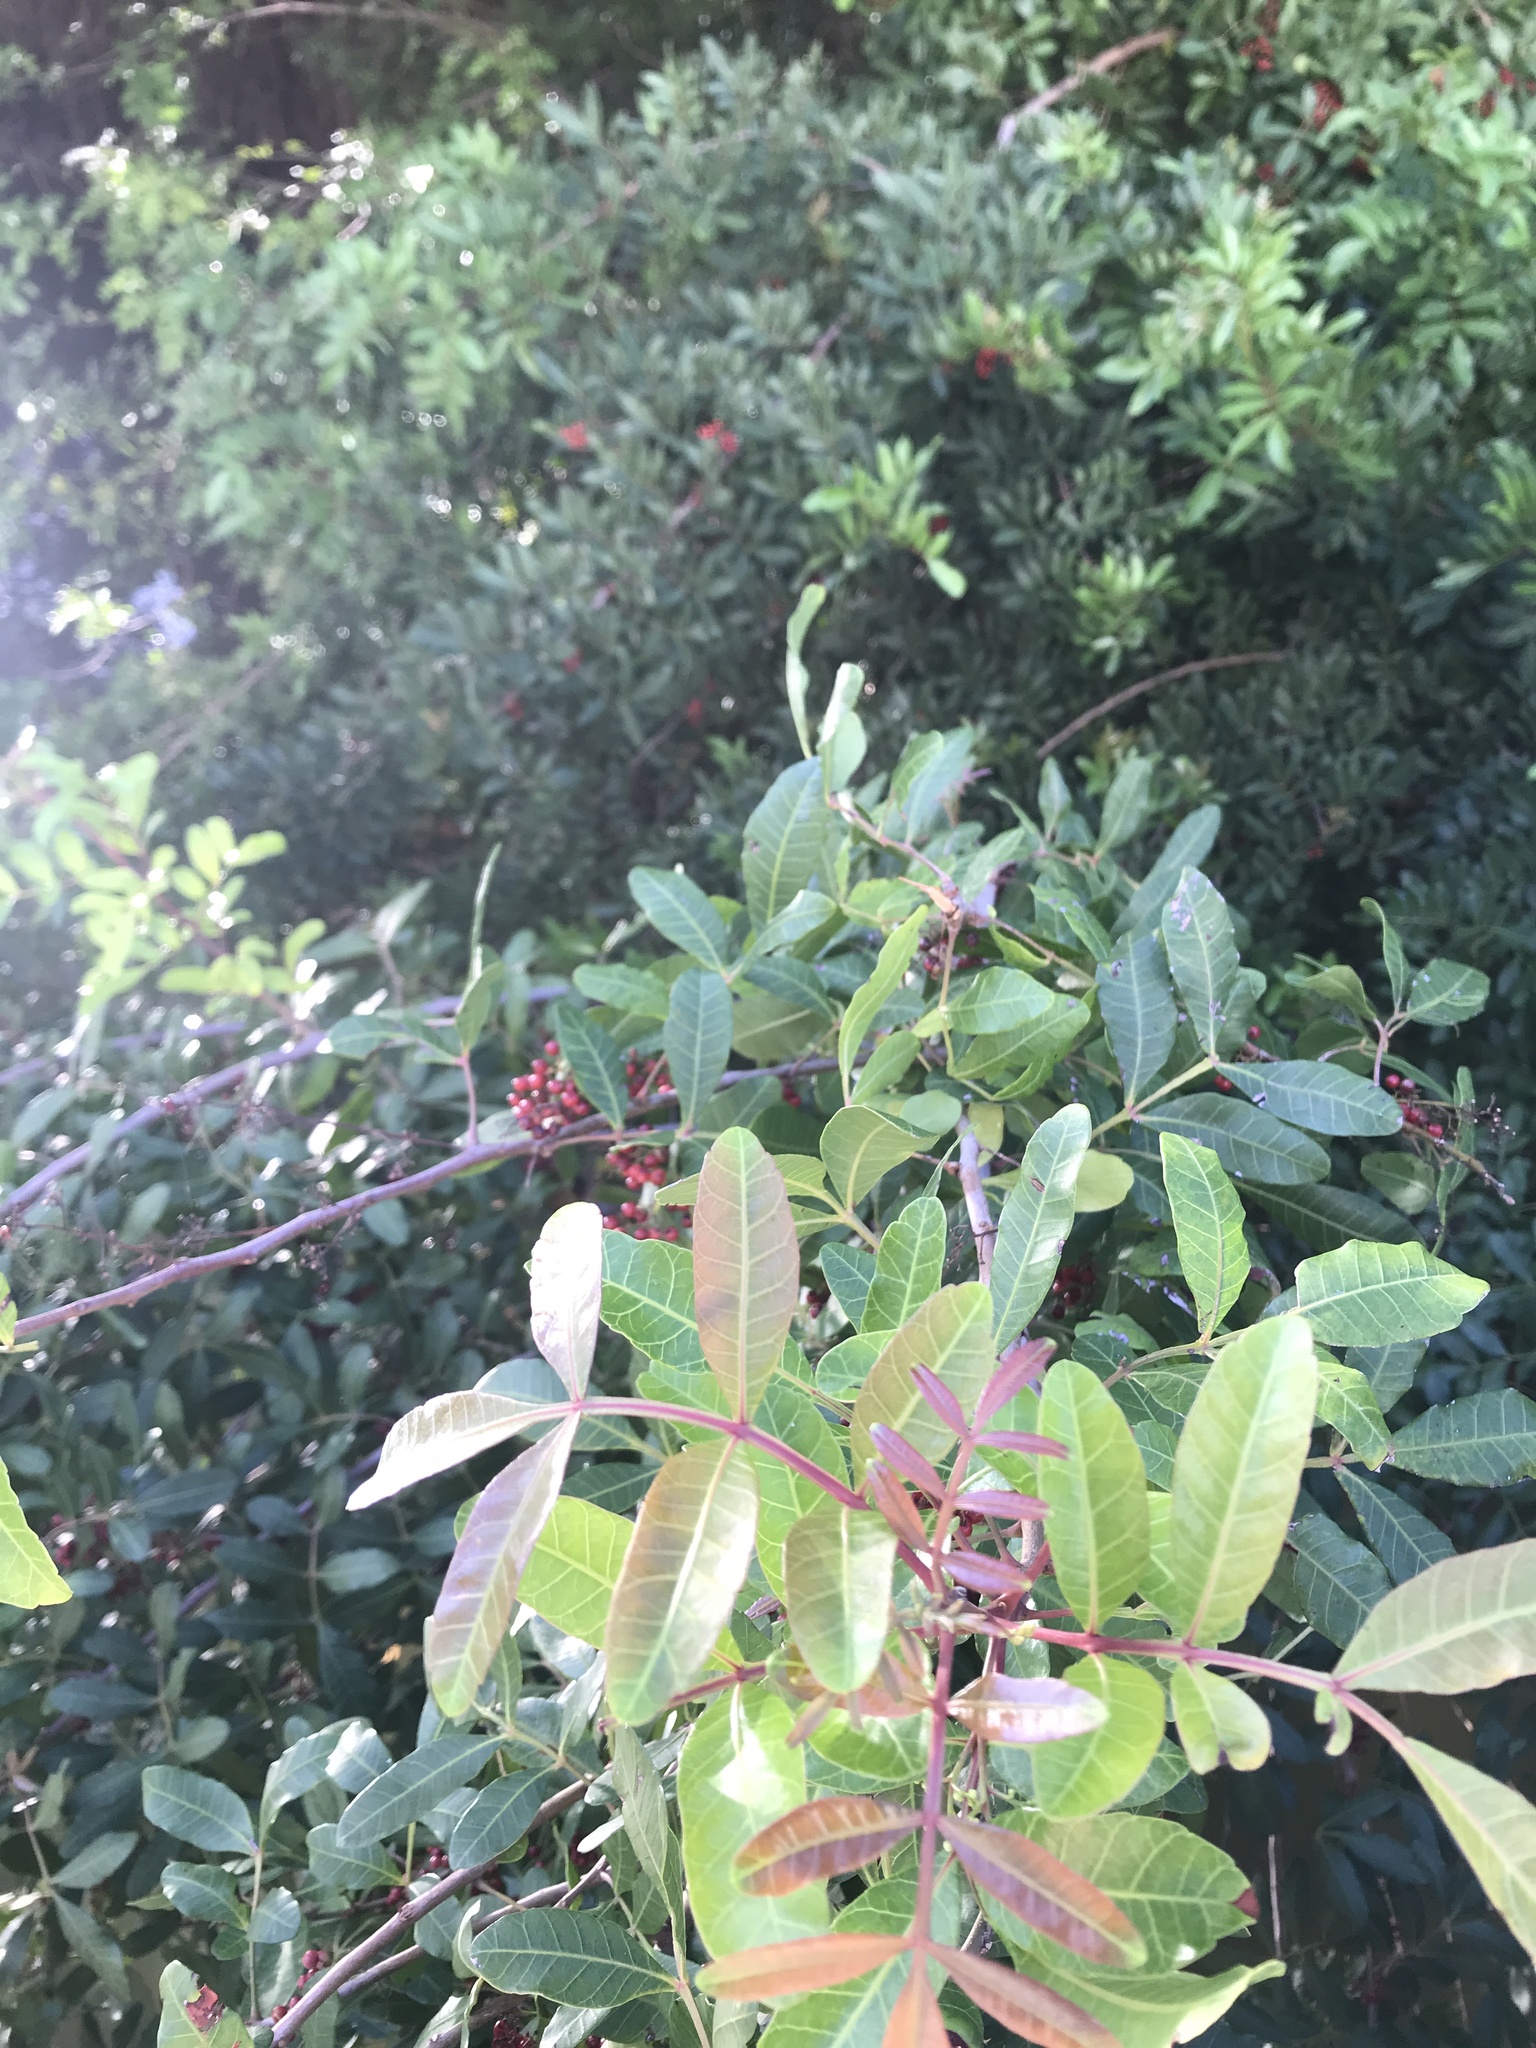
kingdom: Plantae
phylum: Tracheophyta
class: Magnoliopsida
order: Sapindales
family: Anacardiaceae
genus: Schinus
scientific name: Schinus terebinthifolia
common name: Brazilian peppertree
